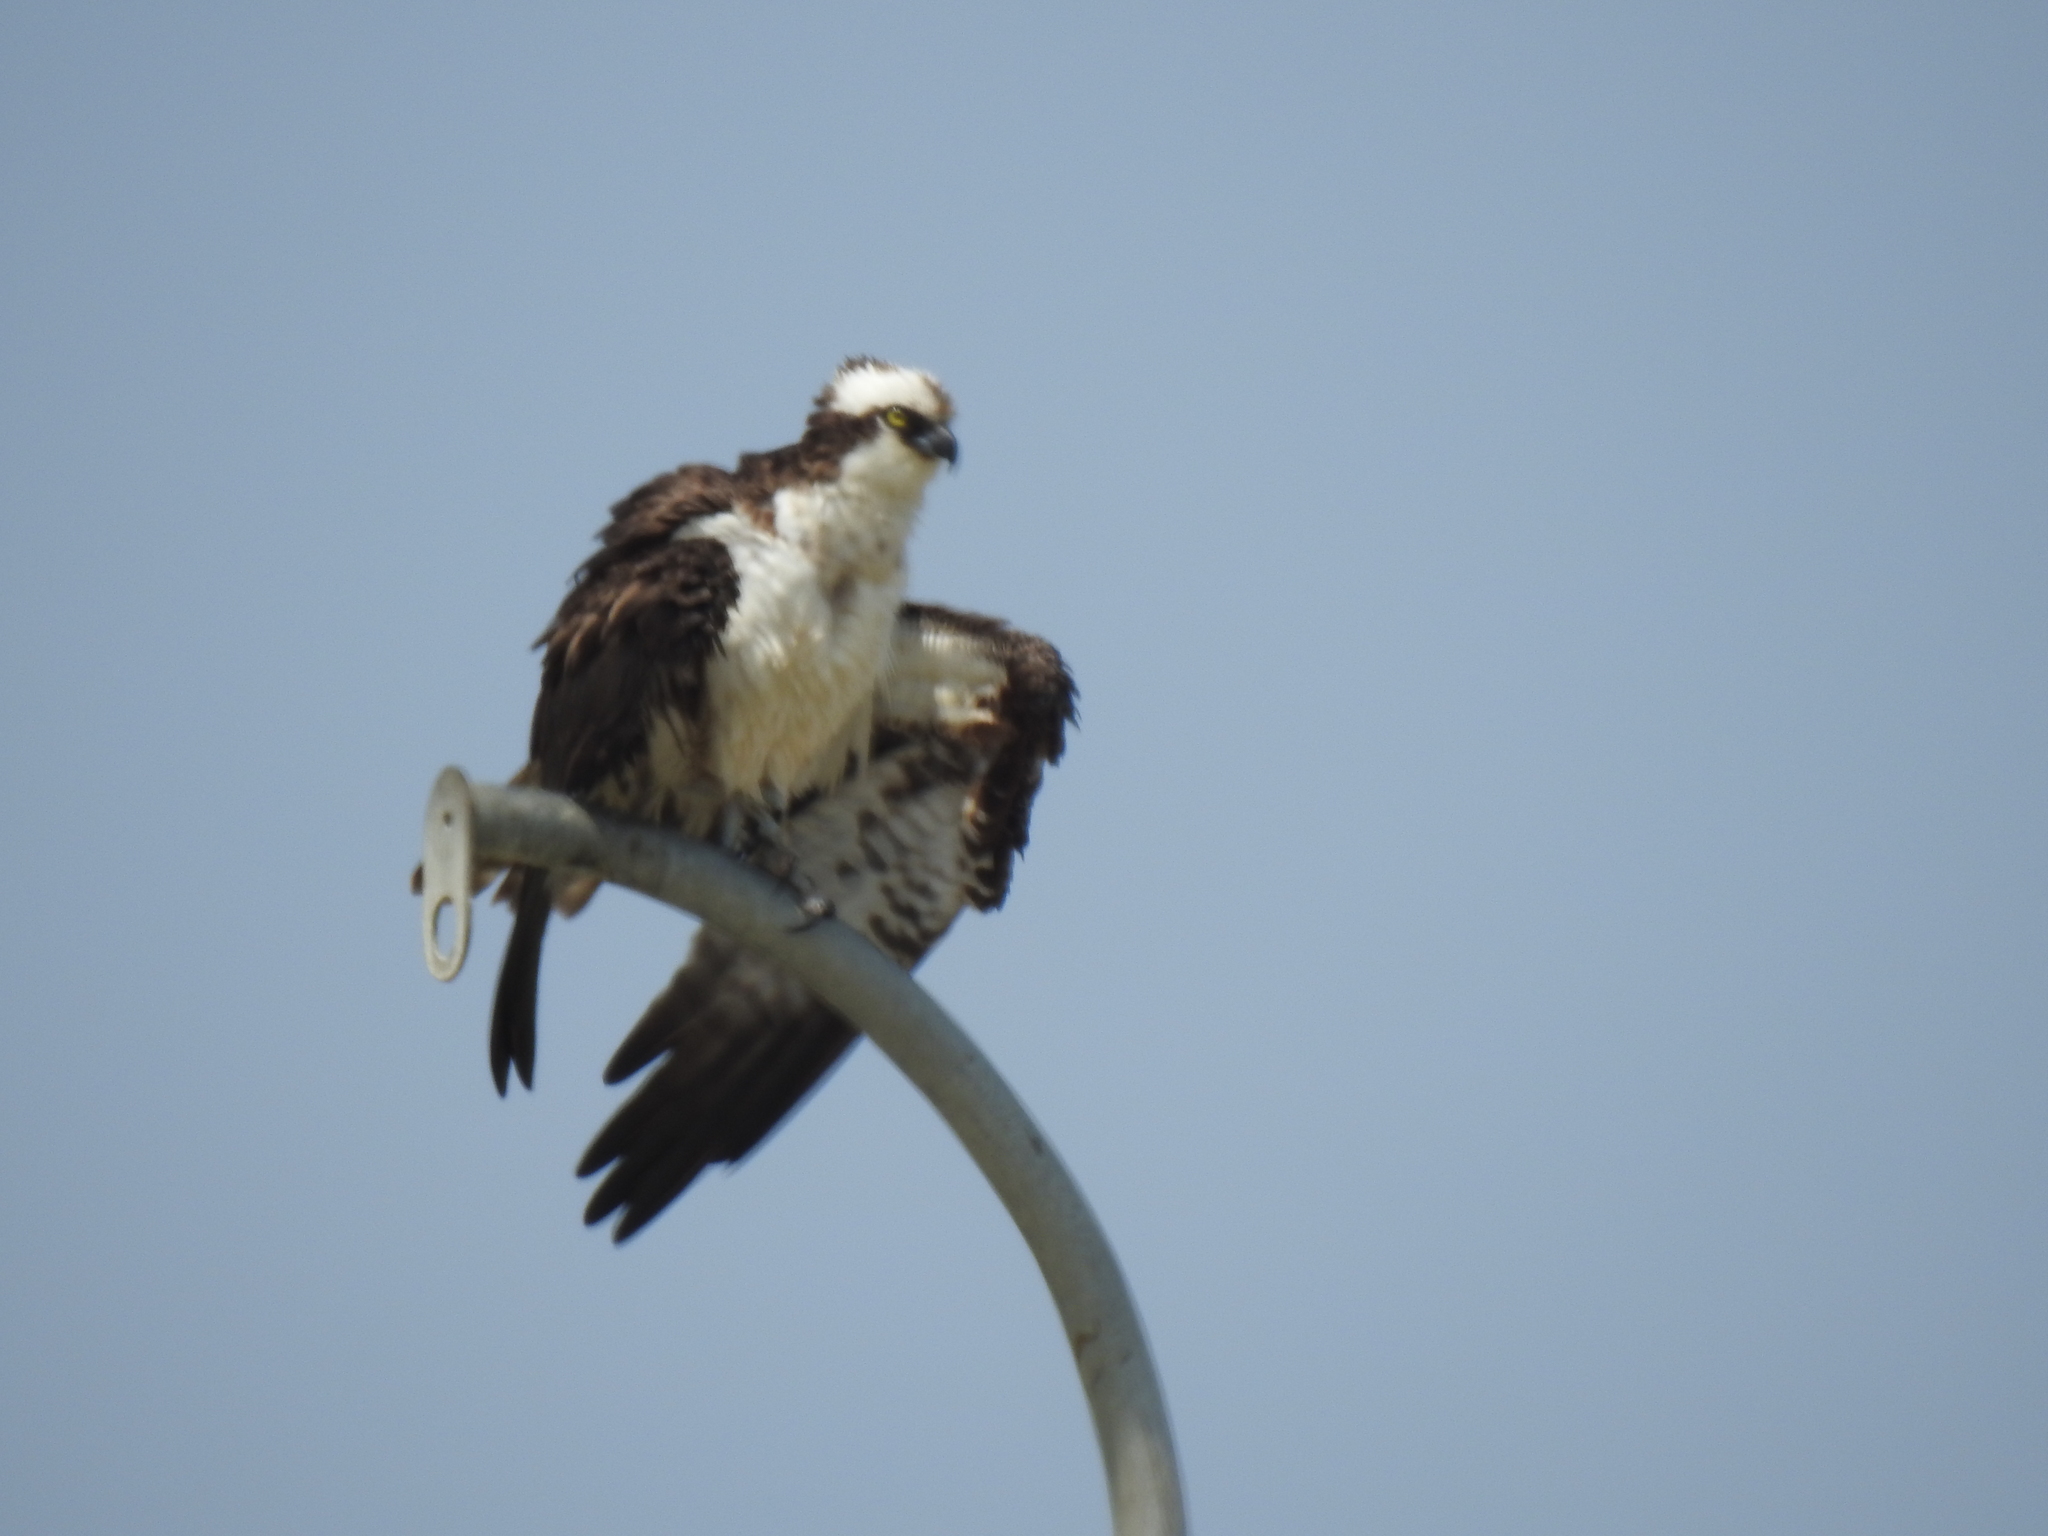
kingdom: Animalia
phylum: Chordata
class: Aves
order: Accipitriformes
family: Pandionidae
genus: Pandion
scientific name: Pandion haliaetus
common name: Osprey
